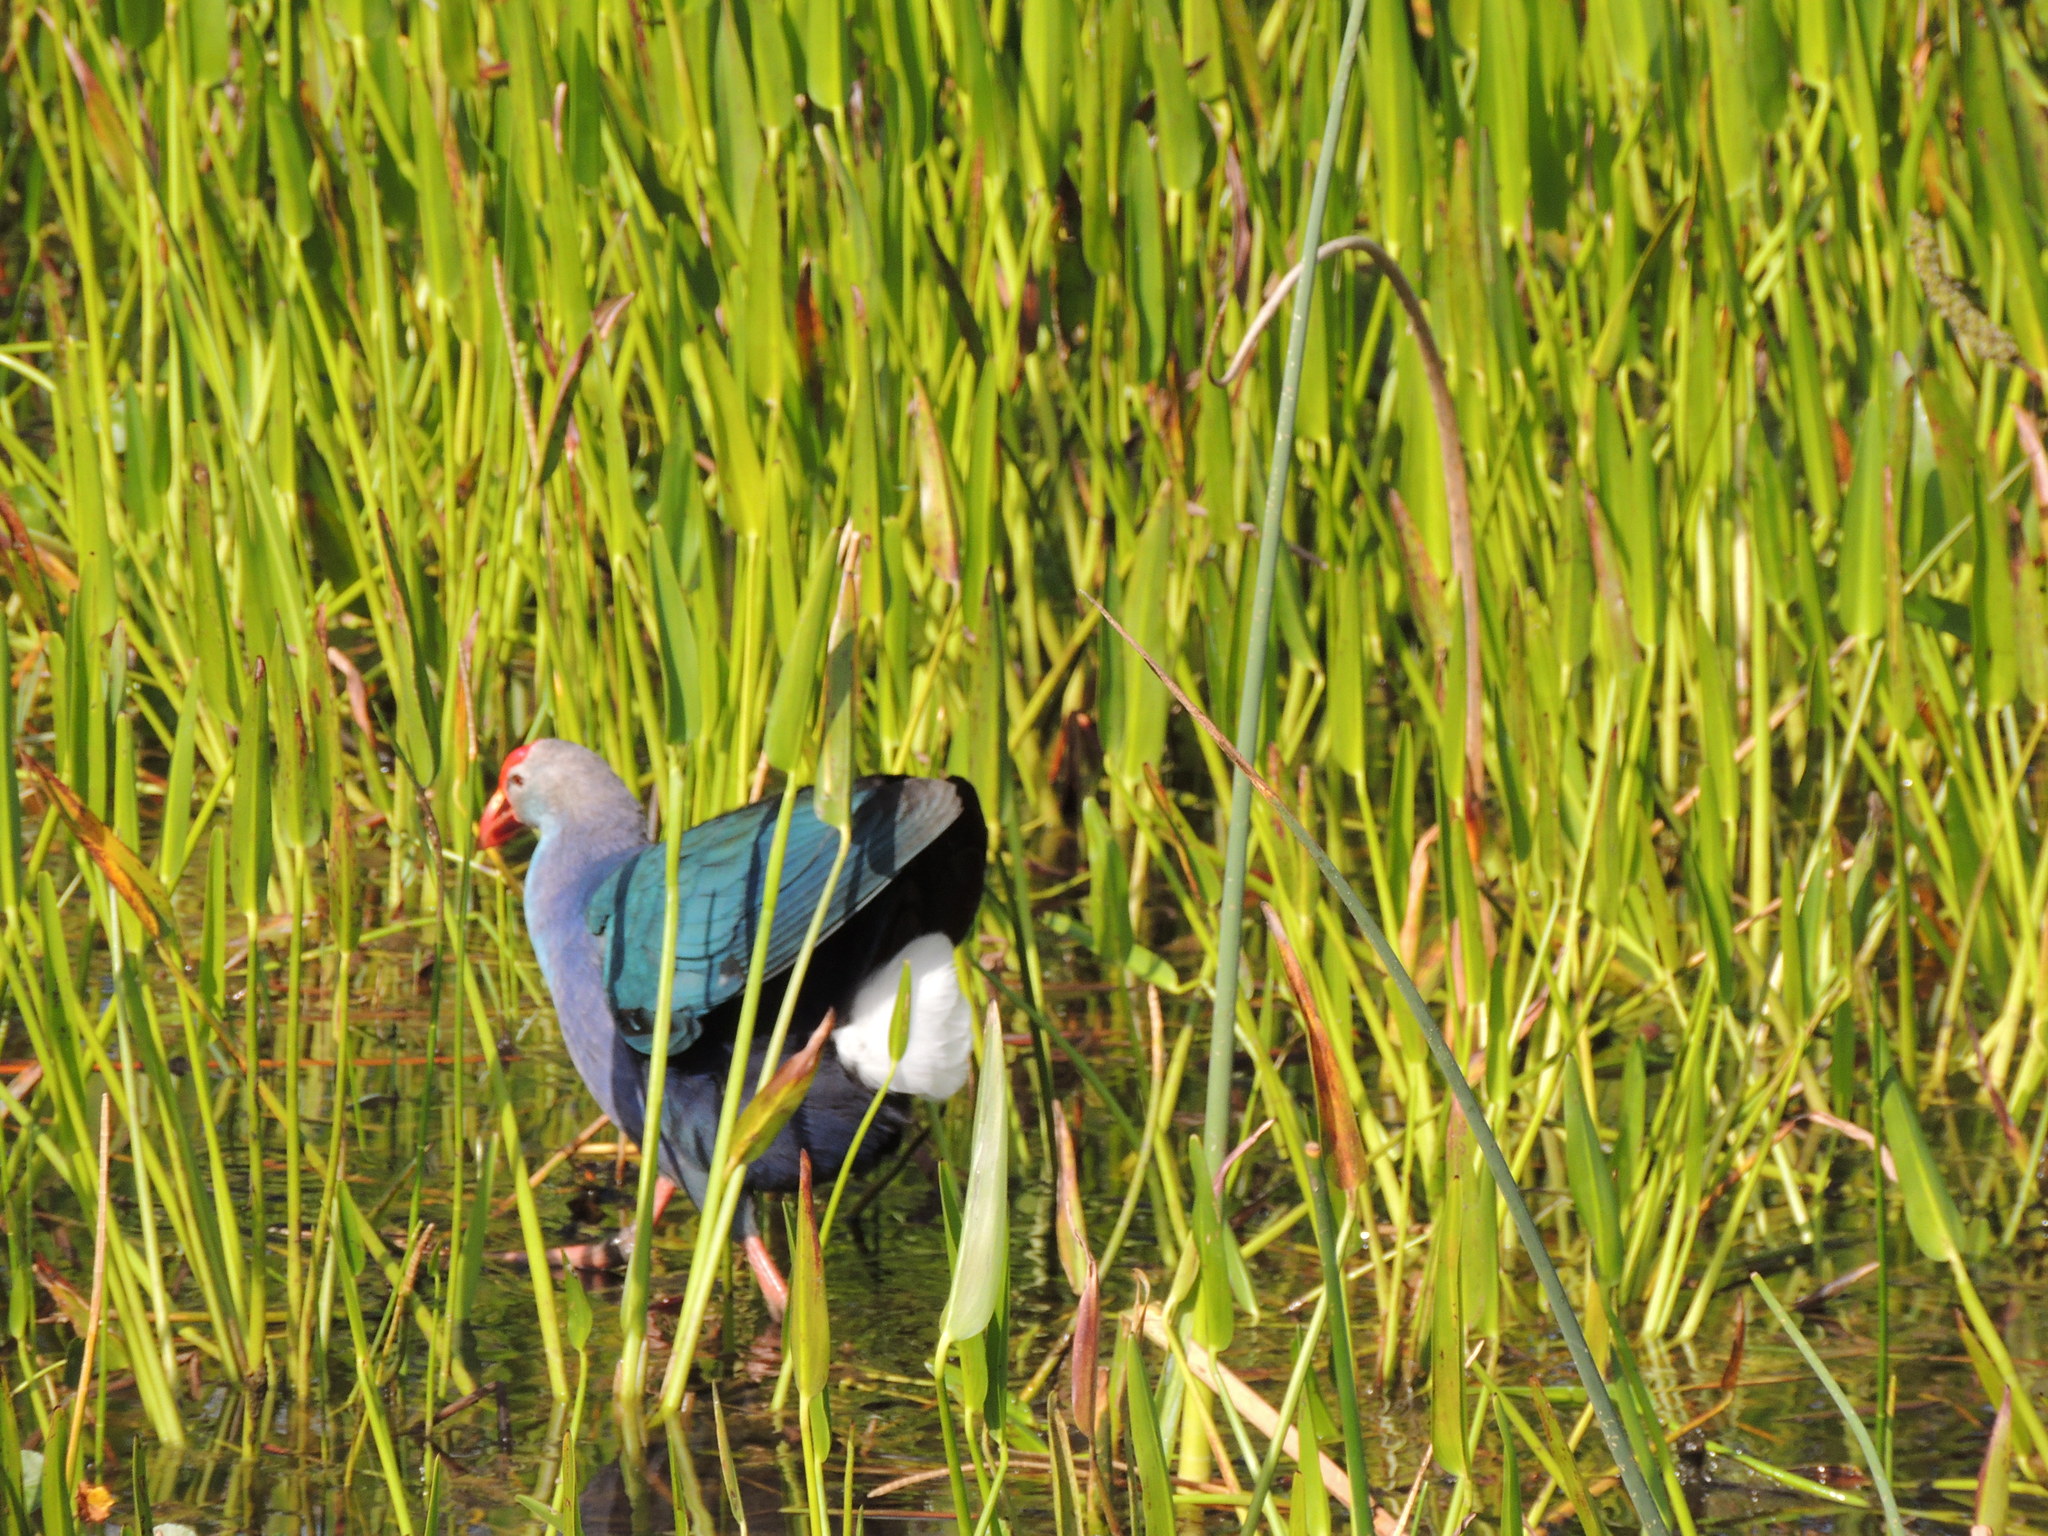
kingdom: Animalia
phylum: Chordata
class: Aves
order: Gruiformes
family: Rallidae
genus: Porphyrio
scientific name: Porphyrio porphyrio
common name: Purple swamphen
